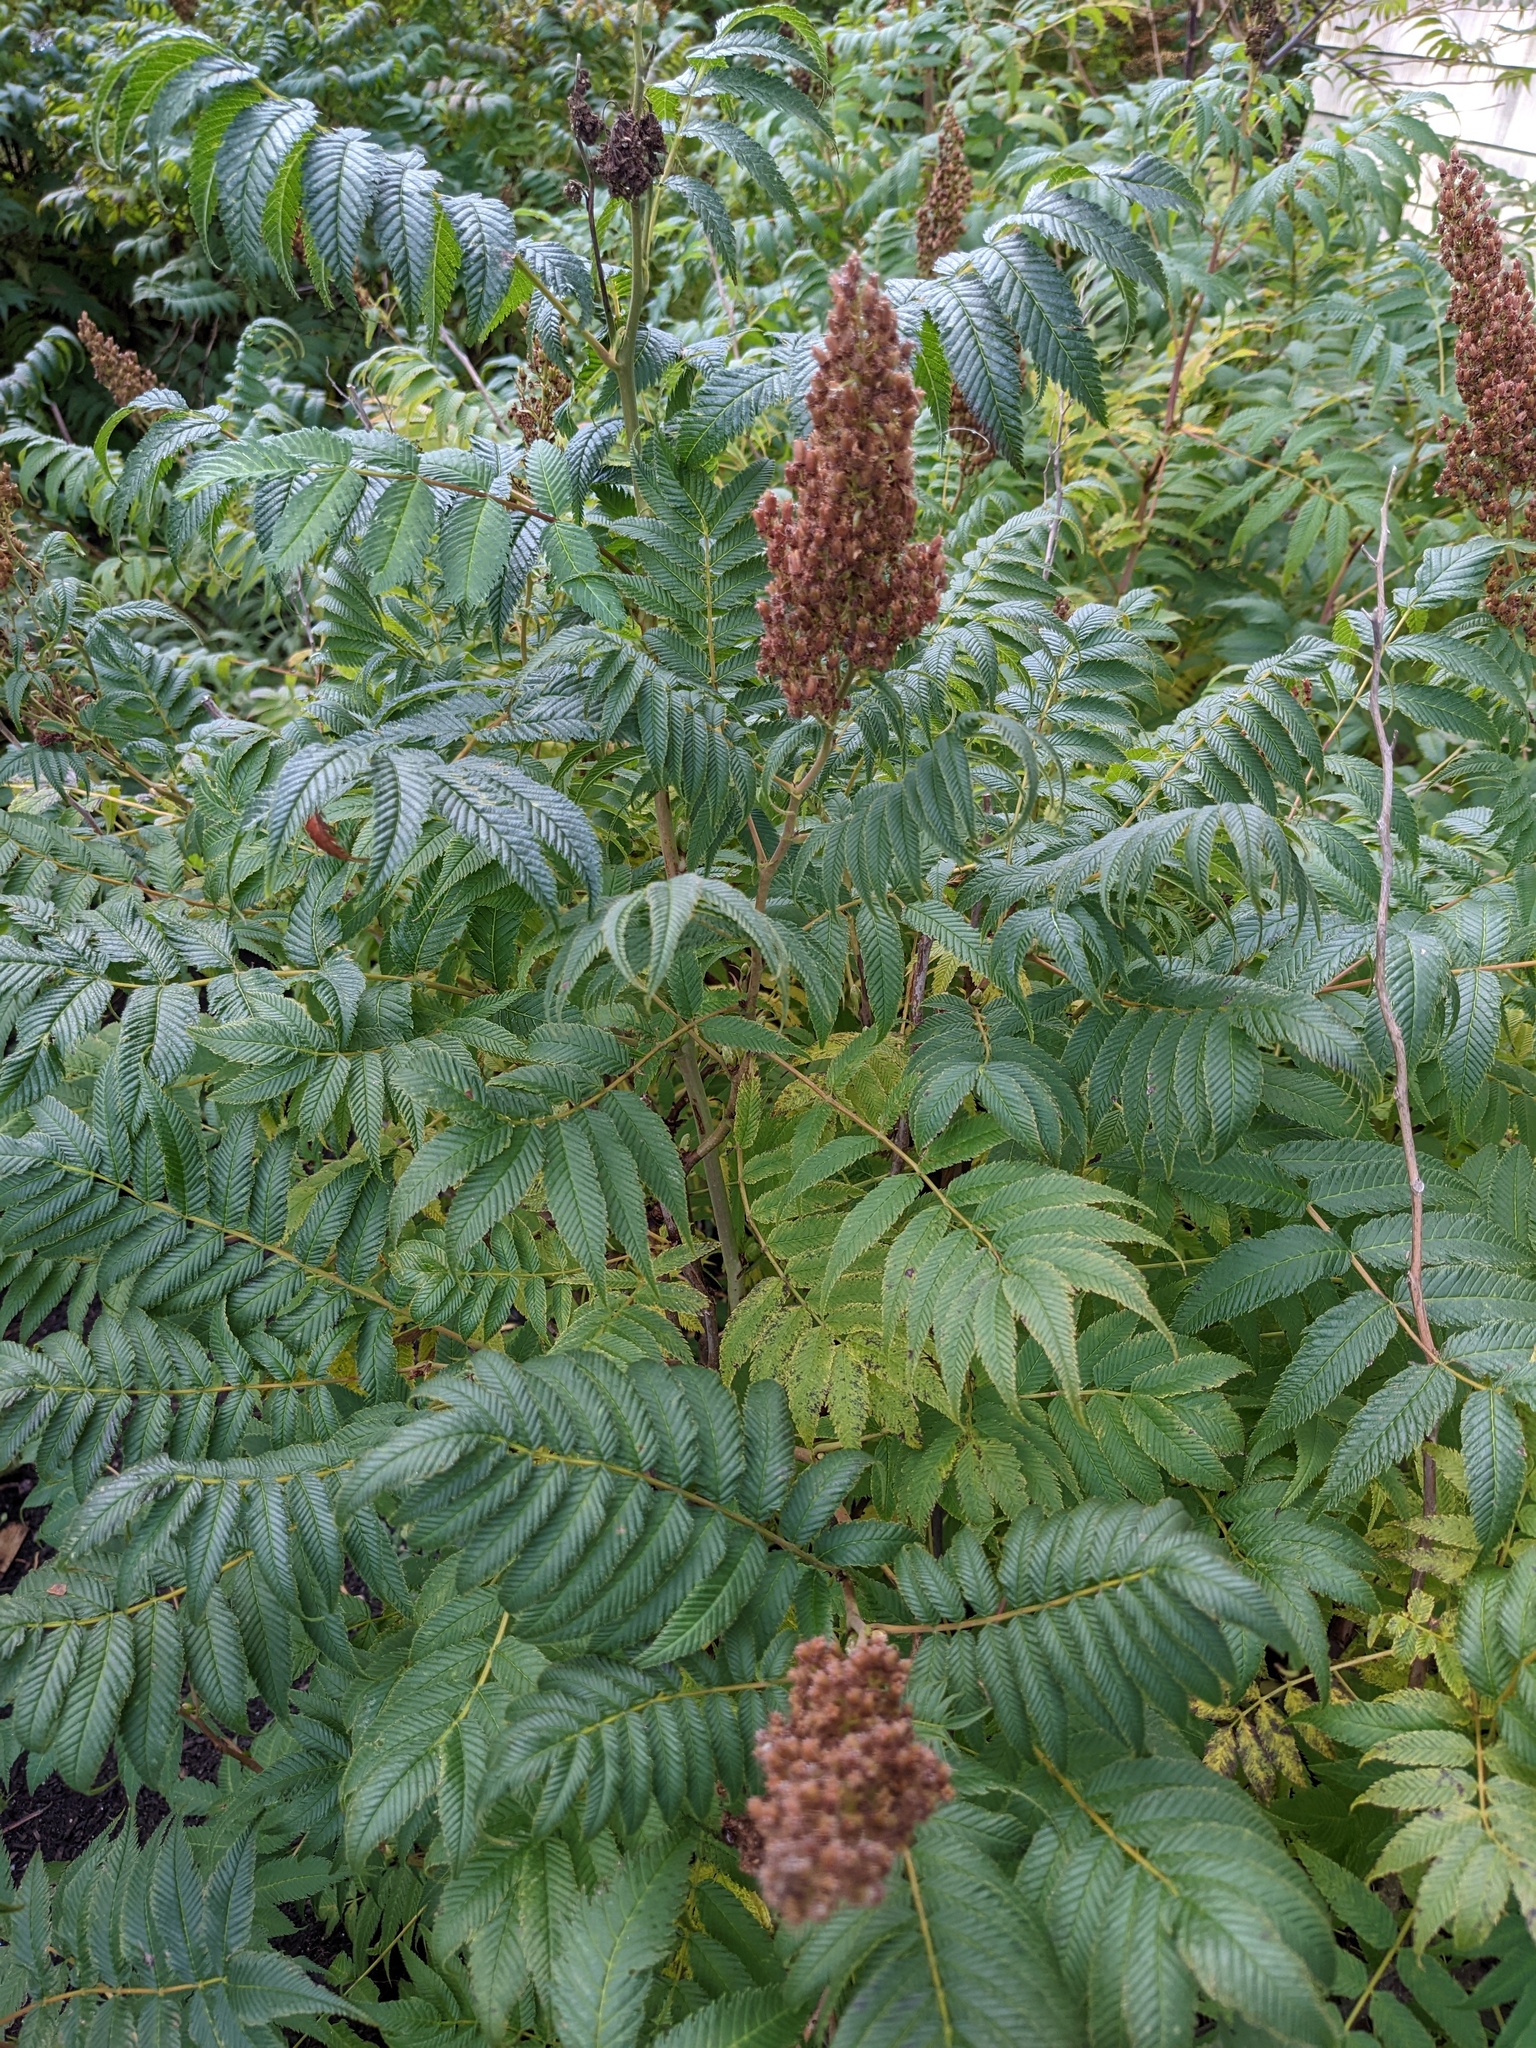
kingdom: Plantae
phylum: Tracheophyta
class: Magnoliopsida
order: Rosales
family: Rosaceae
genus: Sorbaria
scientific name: Sorbaria sorbifolia
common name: False spiraea
